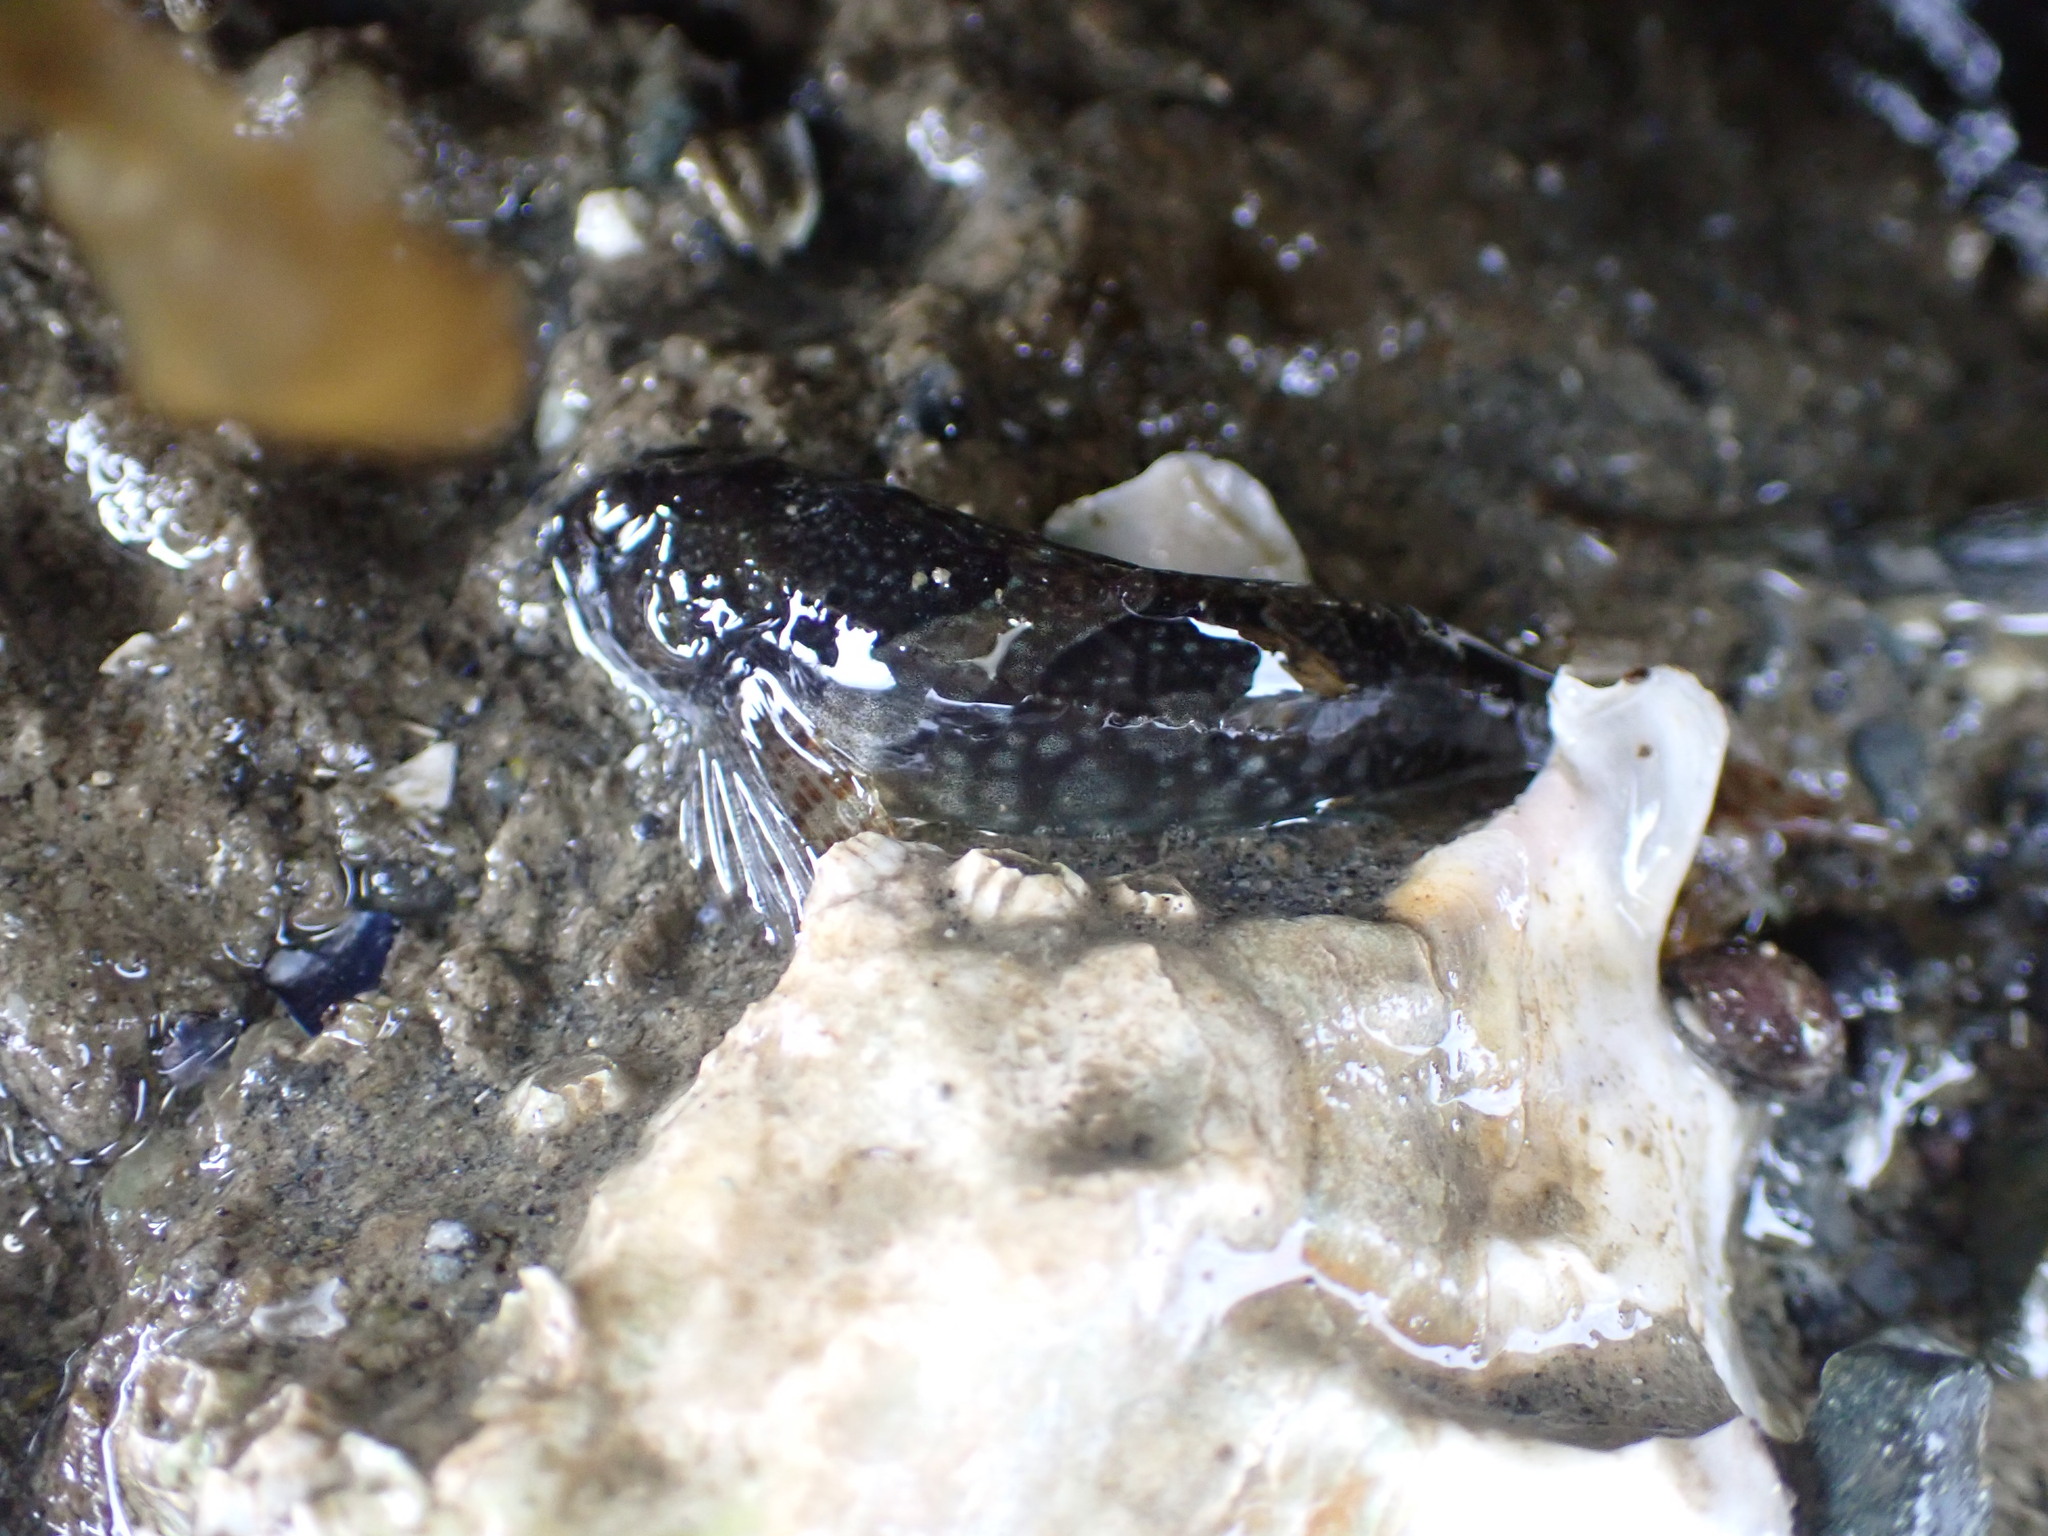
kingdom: Animalia
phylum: Chordata
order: Scorpaeniformes
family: Cottidae
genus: Oligocottus
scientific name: Oligocottus maculosus
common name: Tidepool sculpin
